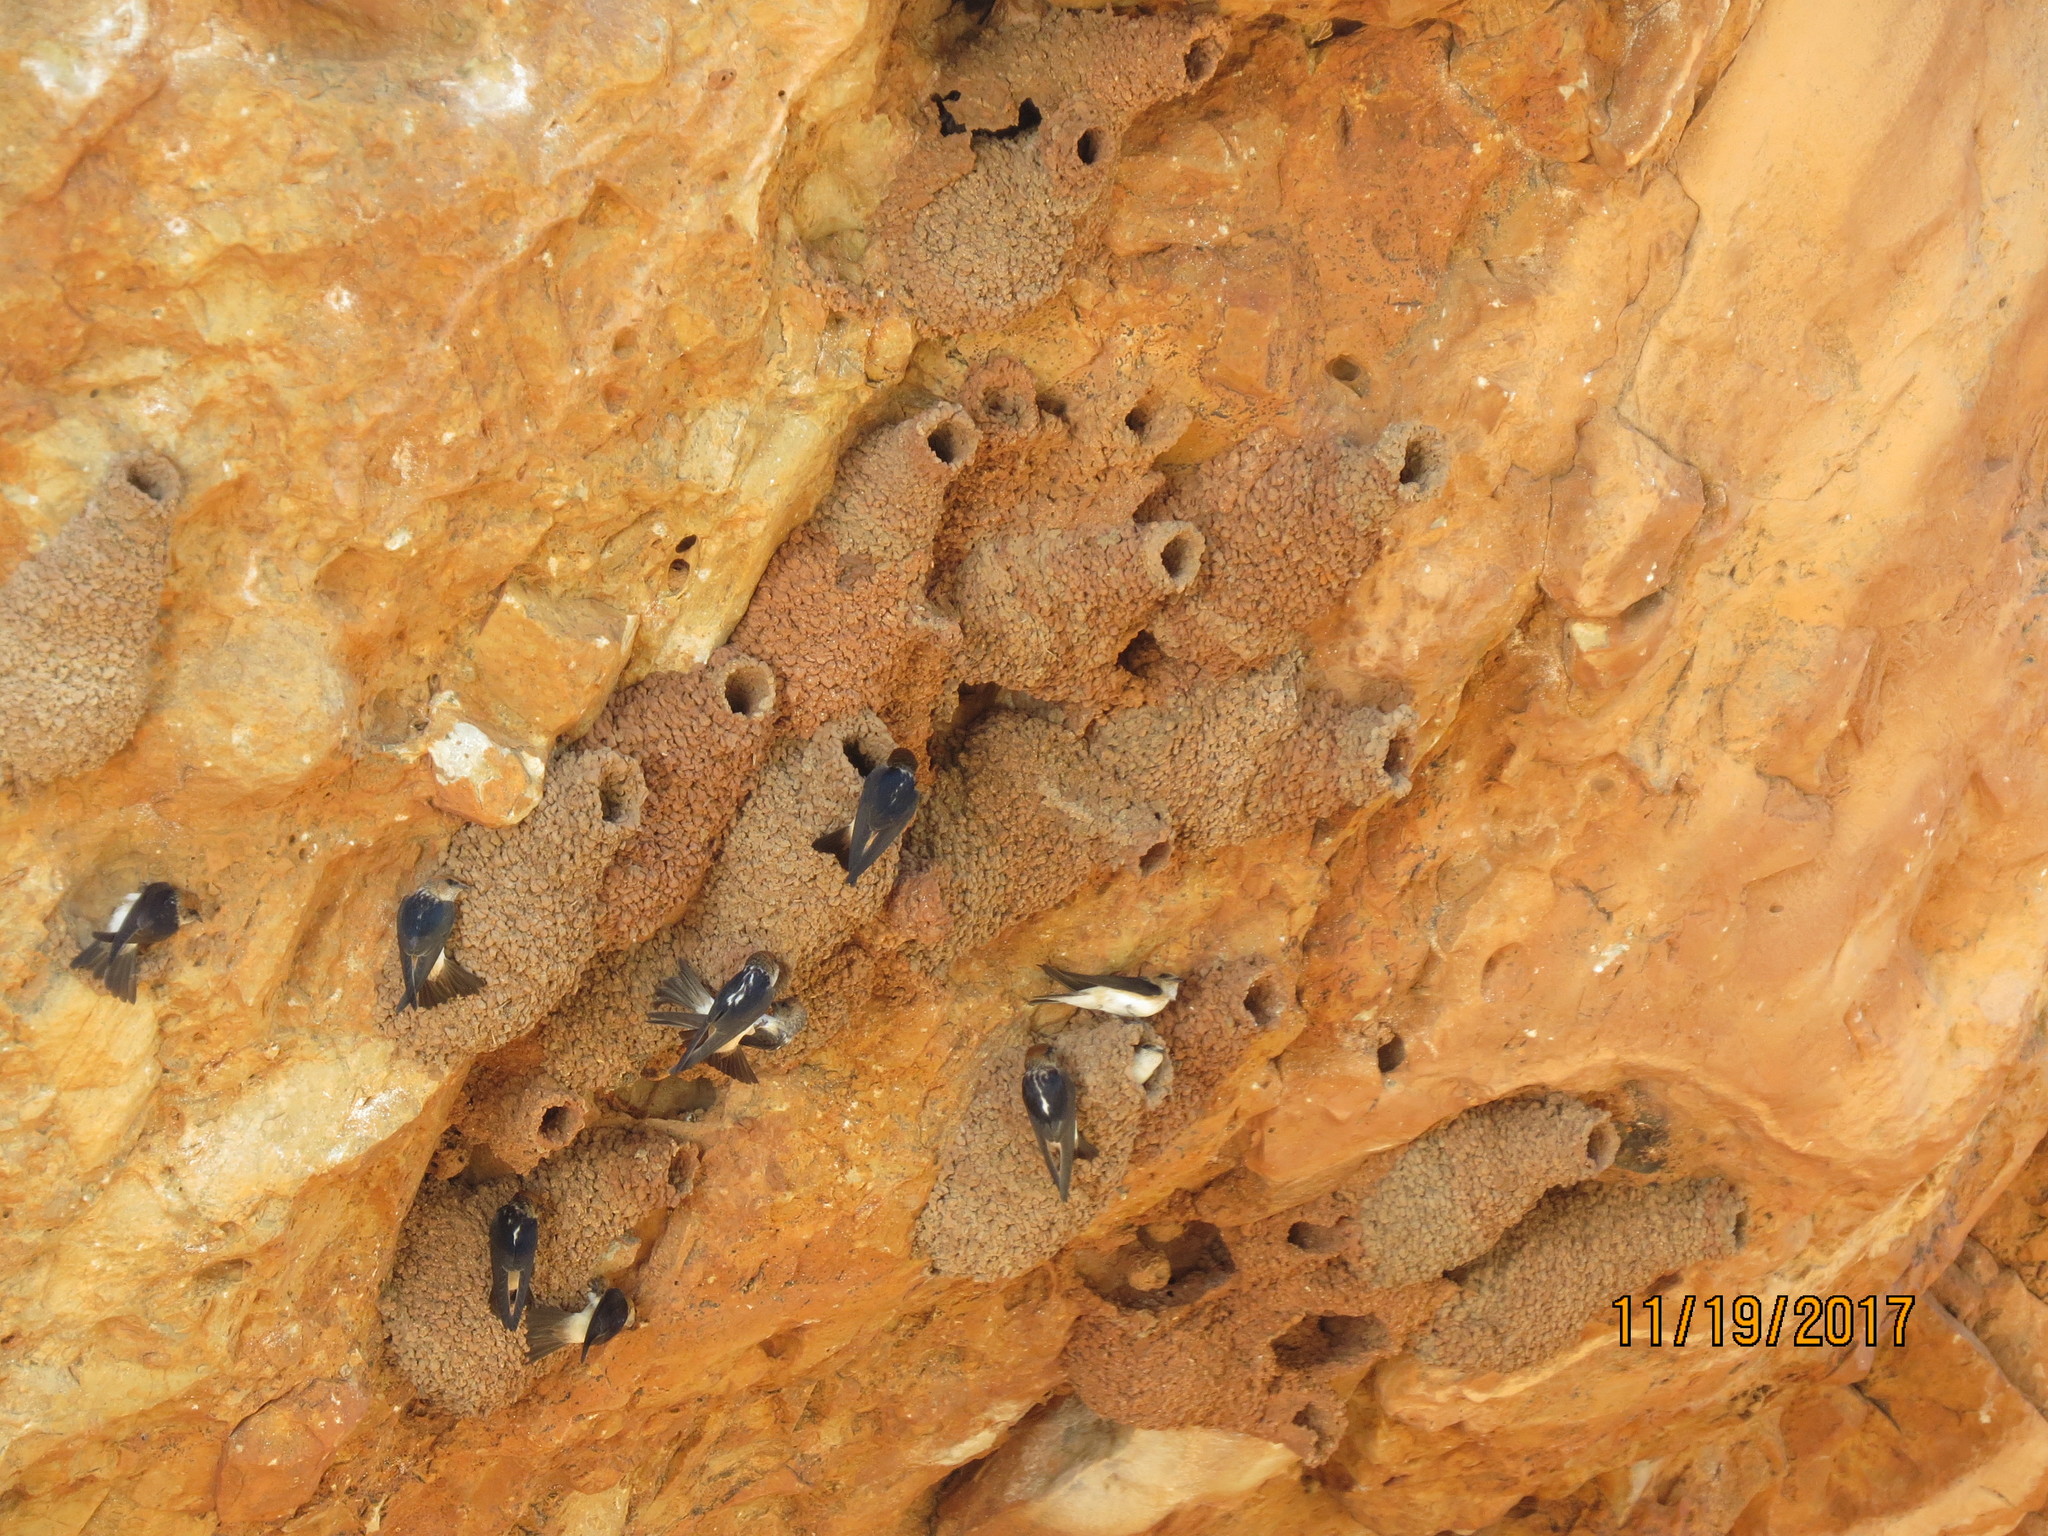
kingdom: Animalia
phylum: Chordata
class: Aves
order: Passeriformes
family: Hirundinidae
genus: Petrochelidon
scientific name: Petrochelidon ariel
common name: Fairy martin
